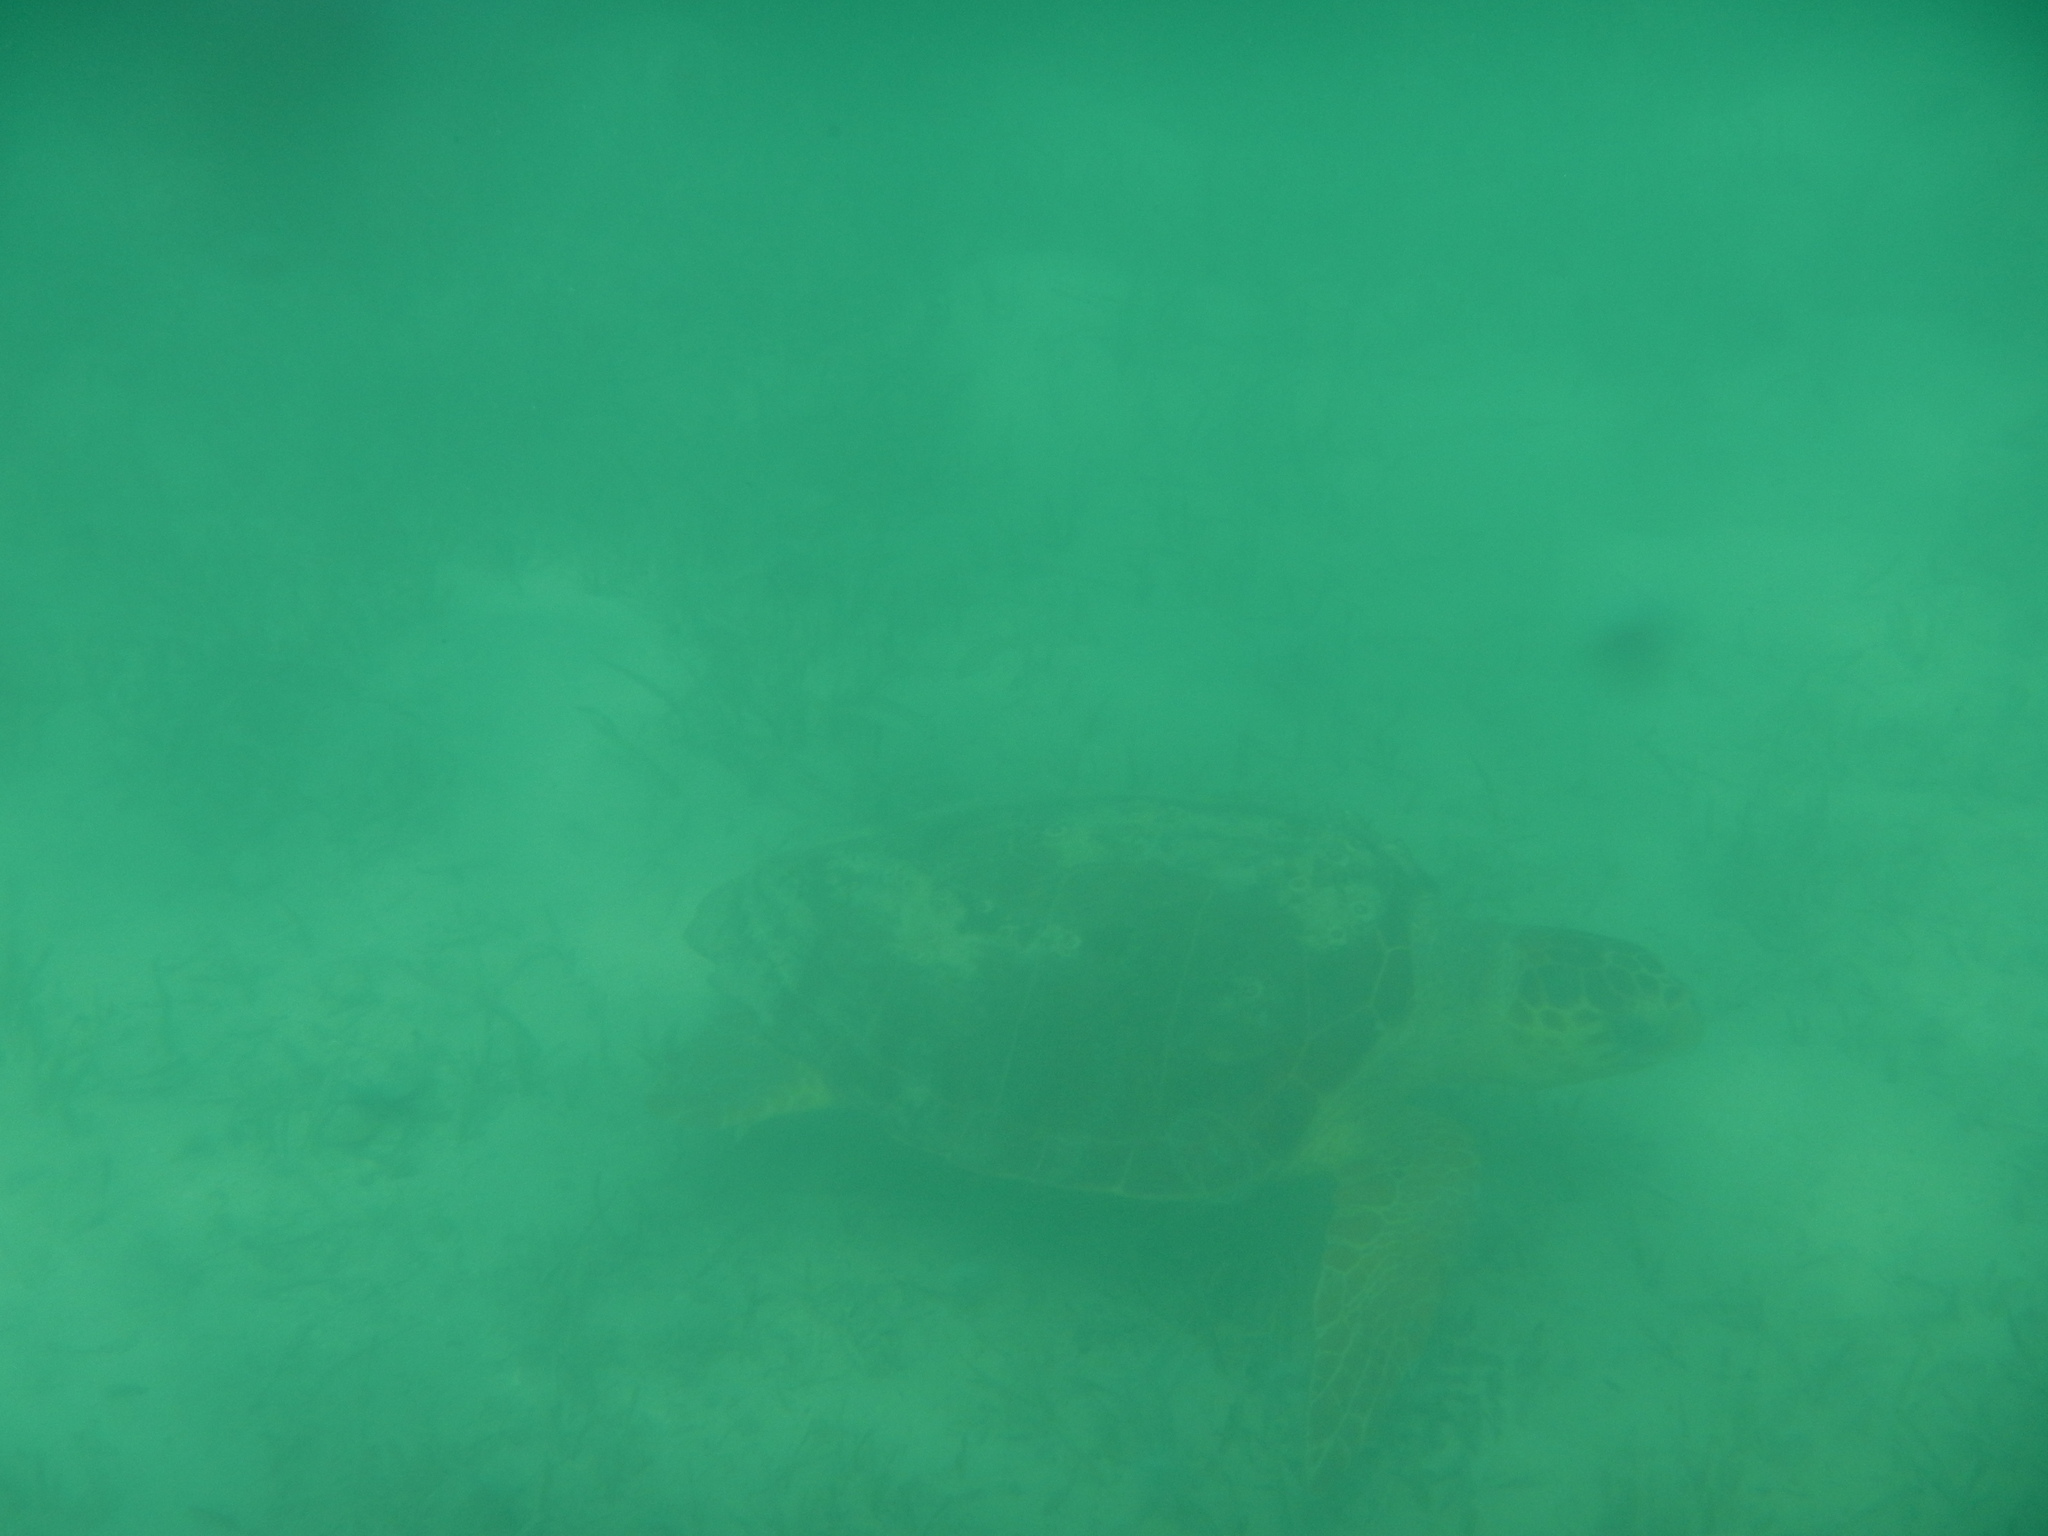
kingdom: Animalia
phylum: Chordata
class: Testudines
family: Cheloniidae
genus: Caretta
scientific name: Caretta caretta
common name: Loggerhead sea turtle
